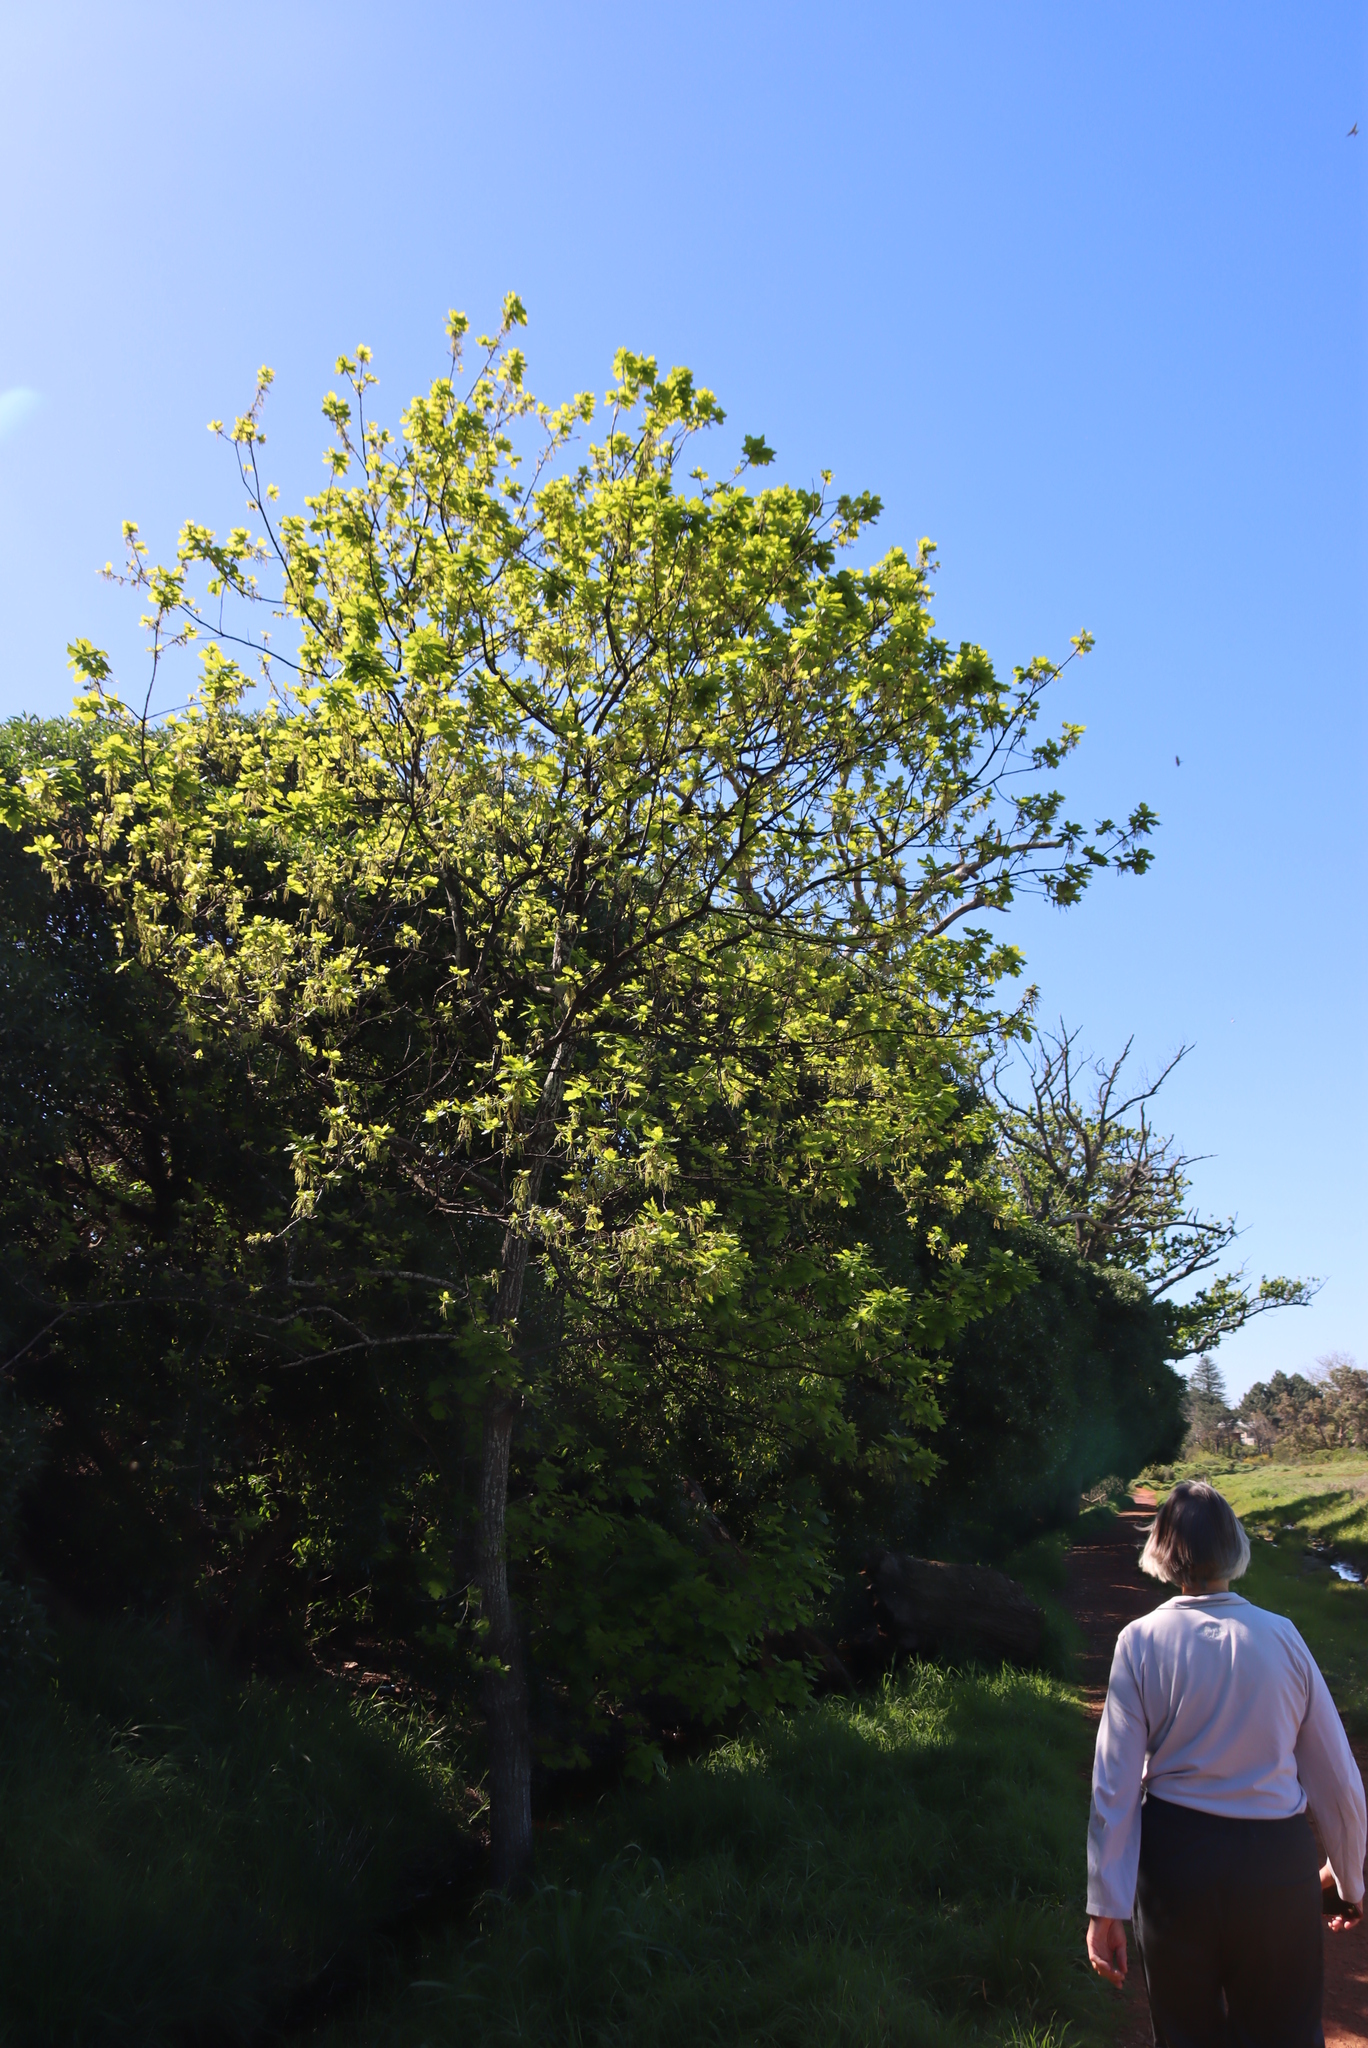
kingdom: Plantae
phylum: Tracheophyta
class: Magnoliopsida
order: Fagales
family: Fagaceae
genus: Quercus
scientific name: Quercus robur
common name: Pedunculate oak
